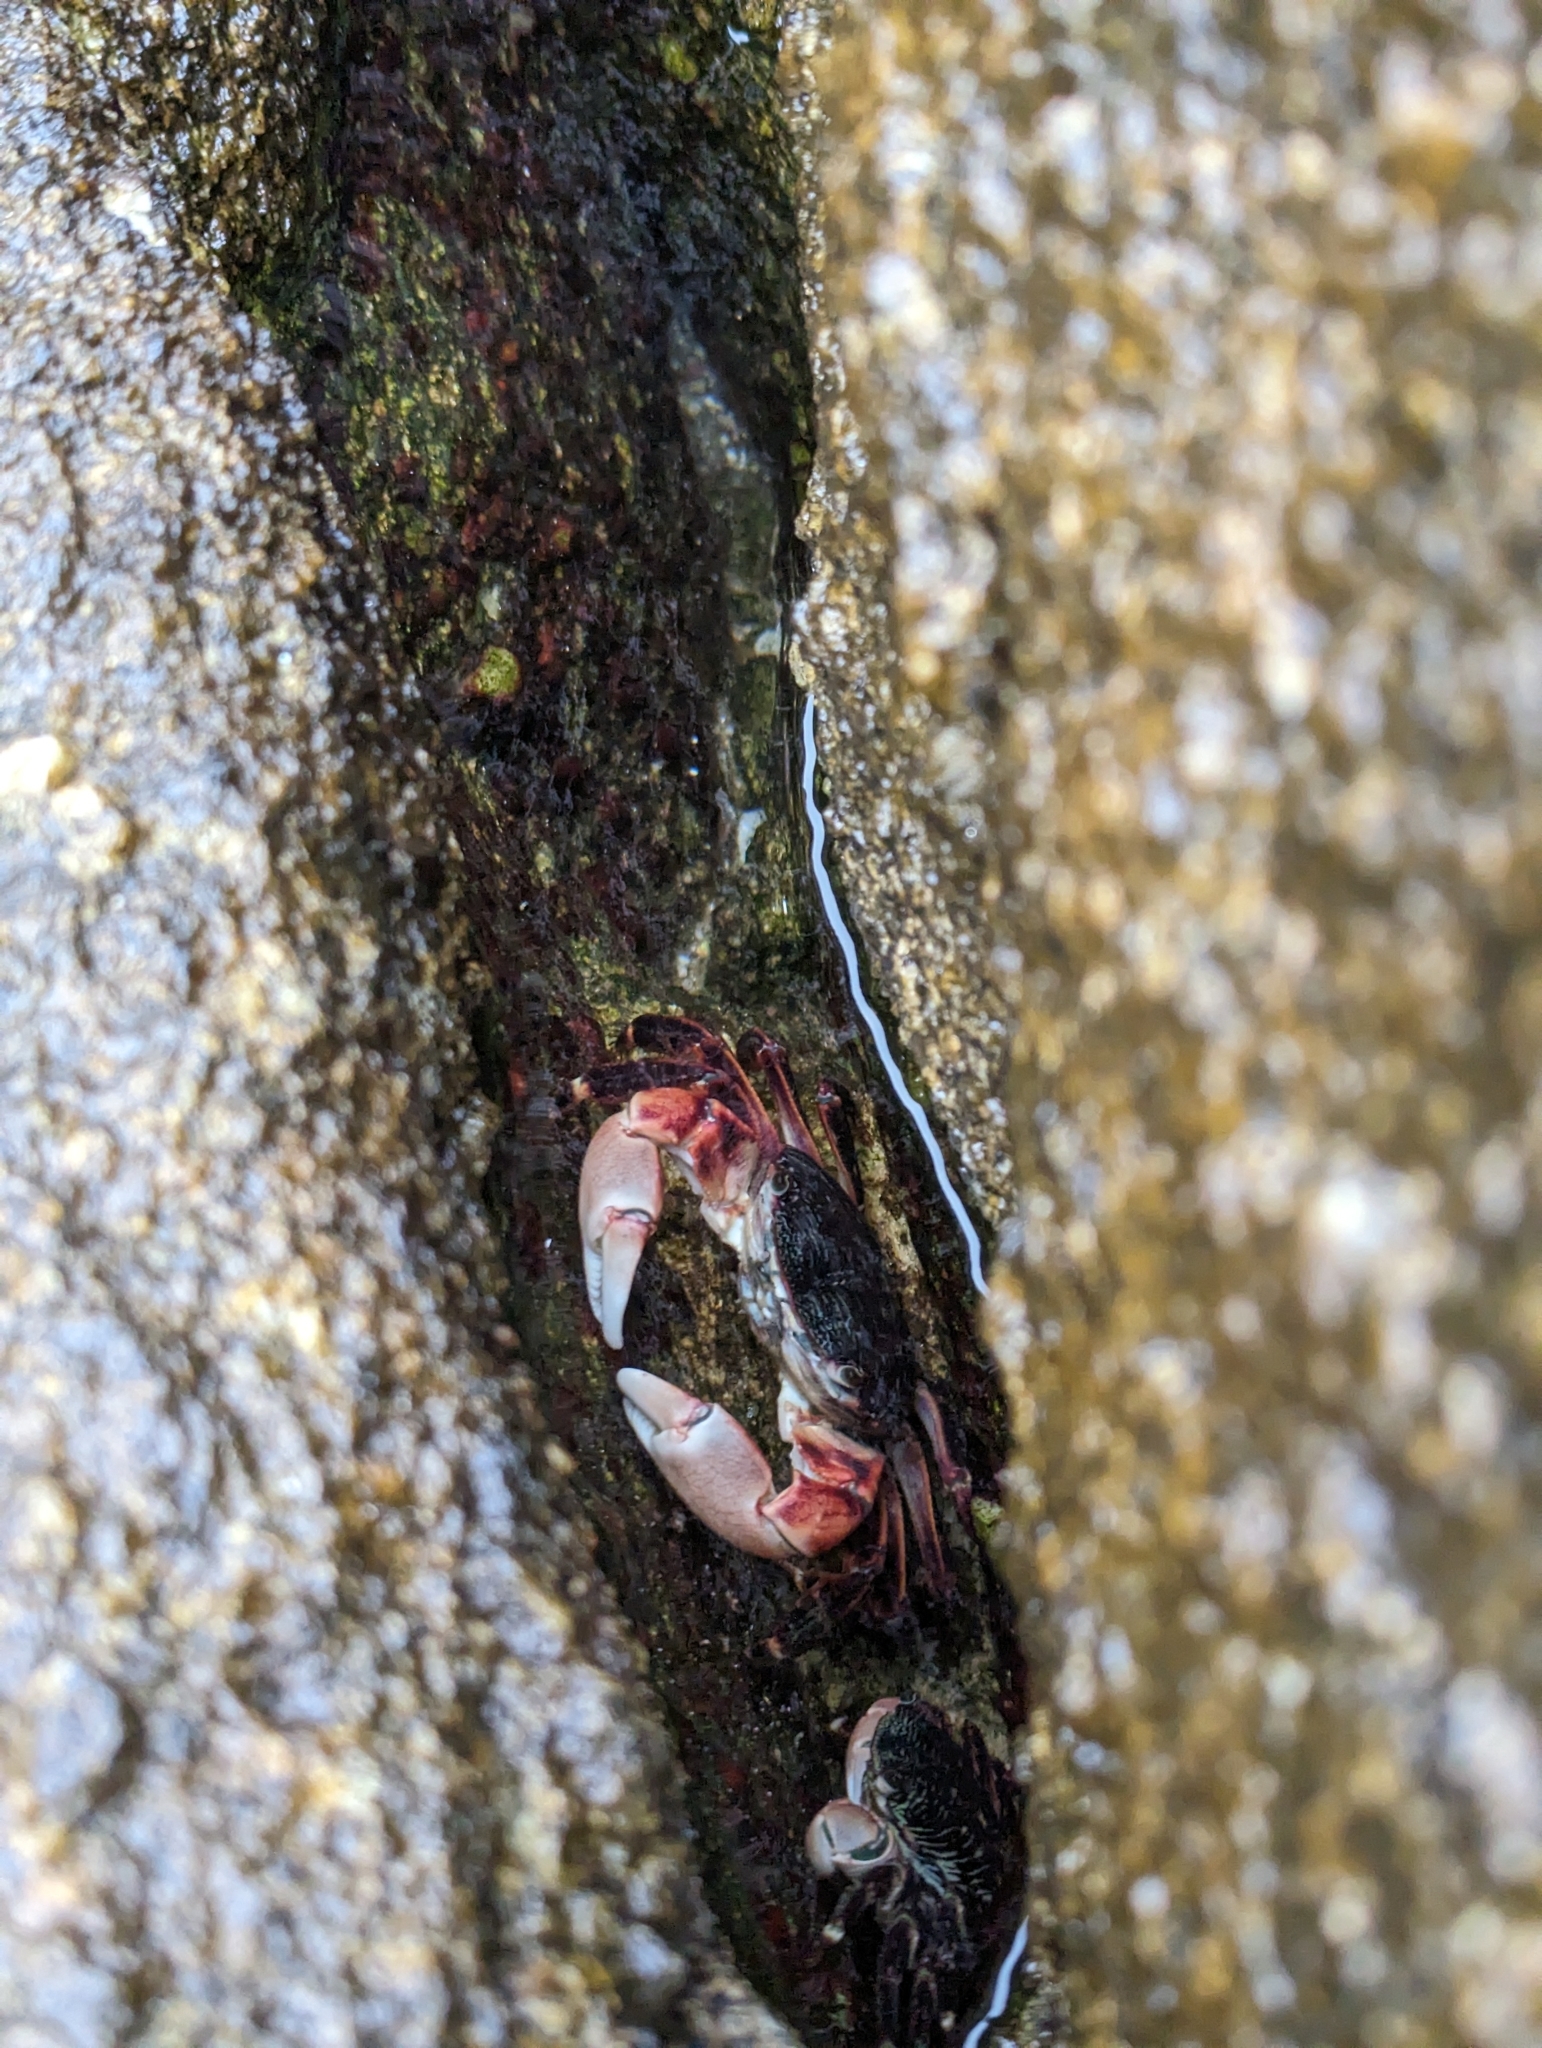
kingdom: Animalia
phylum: Arthropoda
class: Malacostraca
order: Decapoda
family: Grapsidae
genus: Pachygrapsus
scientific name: Pachygrapsus crassipes
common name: Striped shore crab
